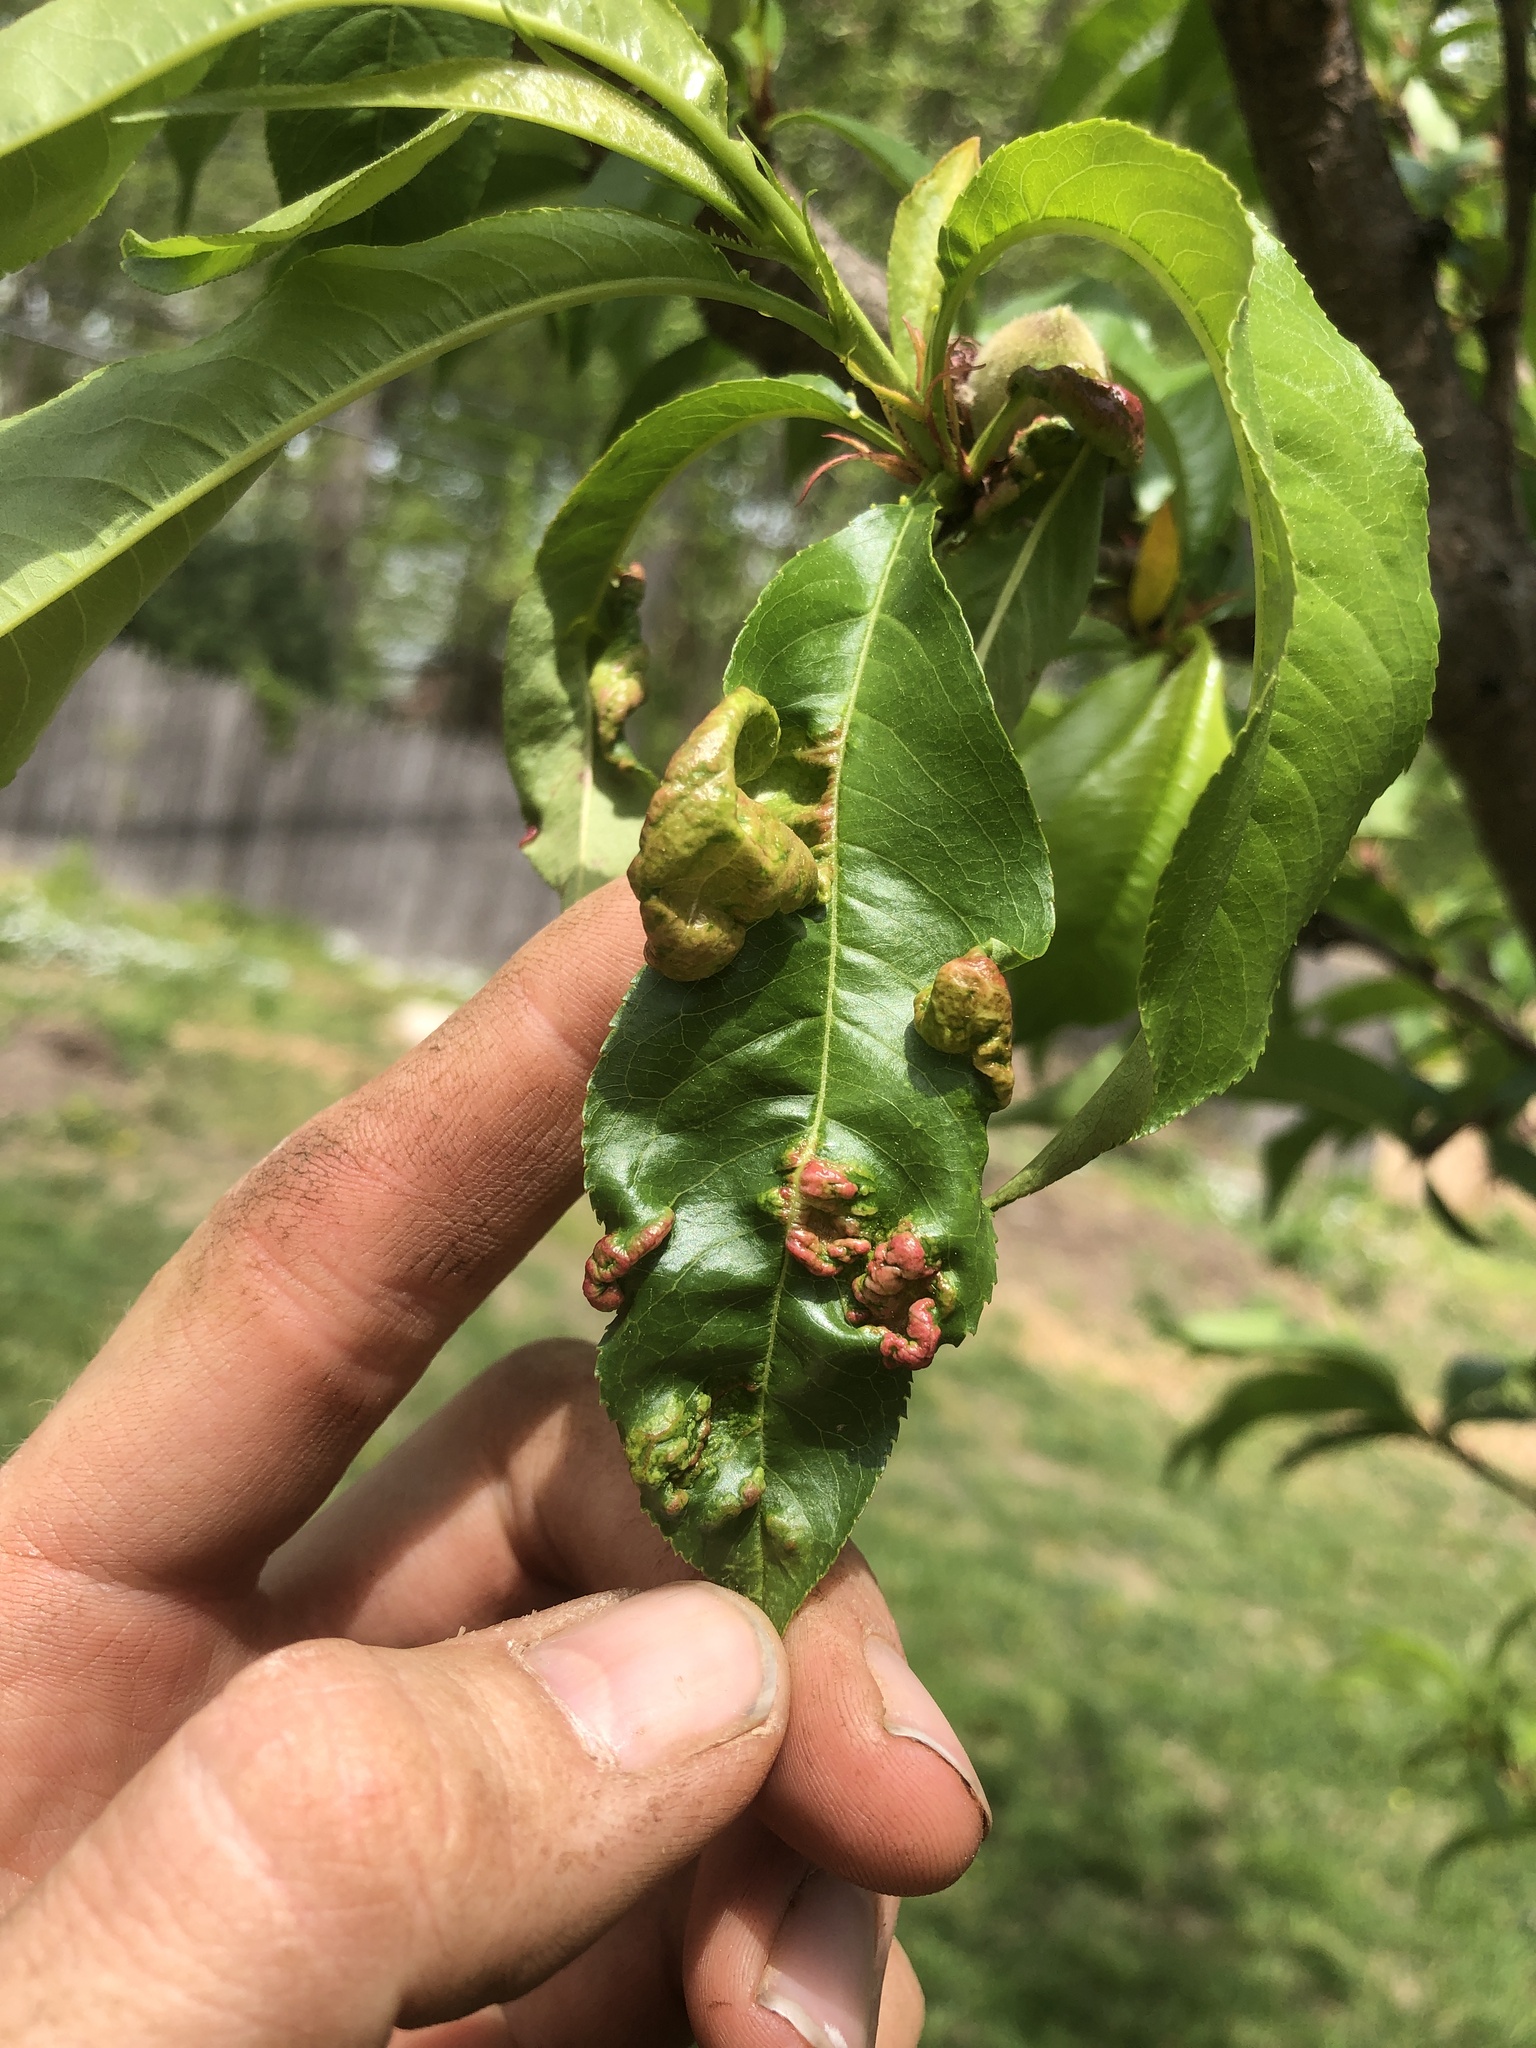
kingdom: Fungi
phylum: Ascomycota
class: Taphrinomycetes
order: Taphrinales
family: Taphrinaceae
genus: Taphrina
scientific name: Taphrina deformans
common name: Peach leaf curl
